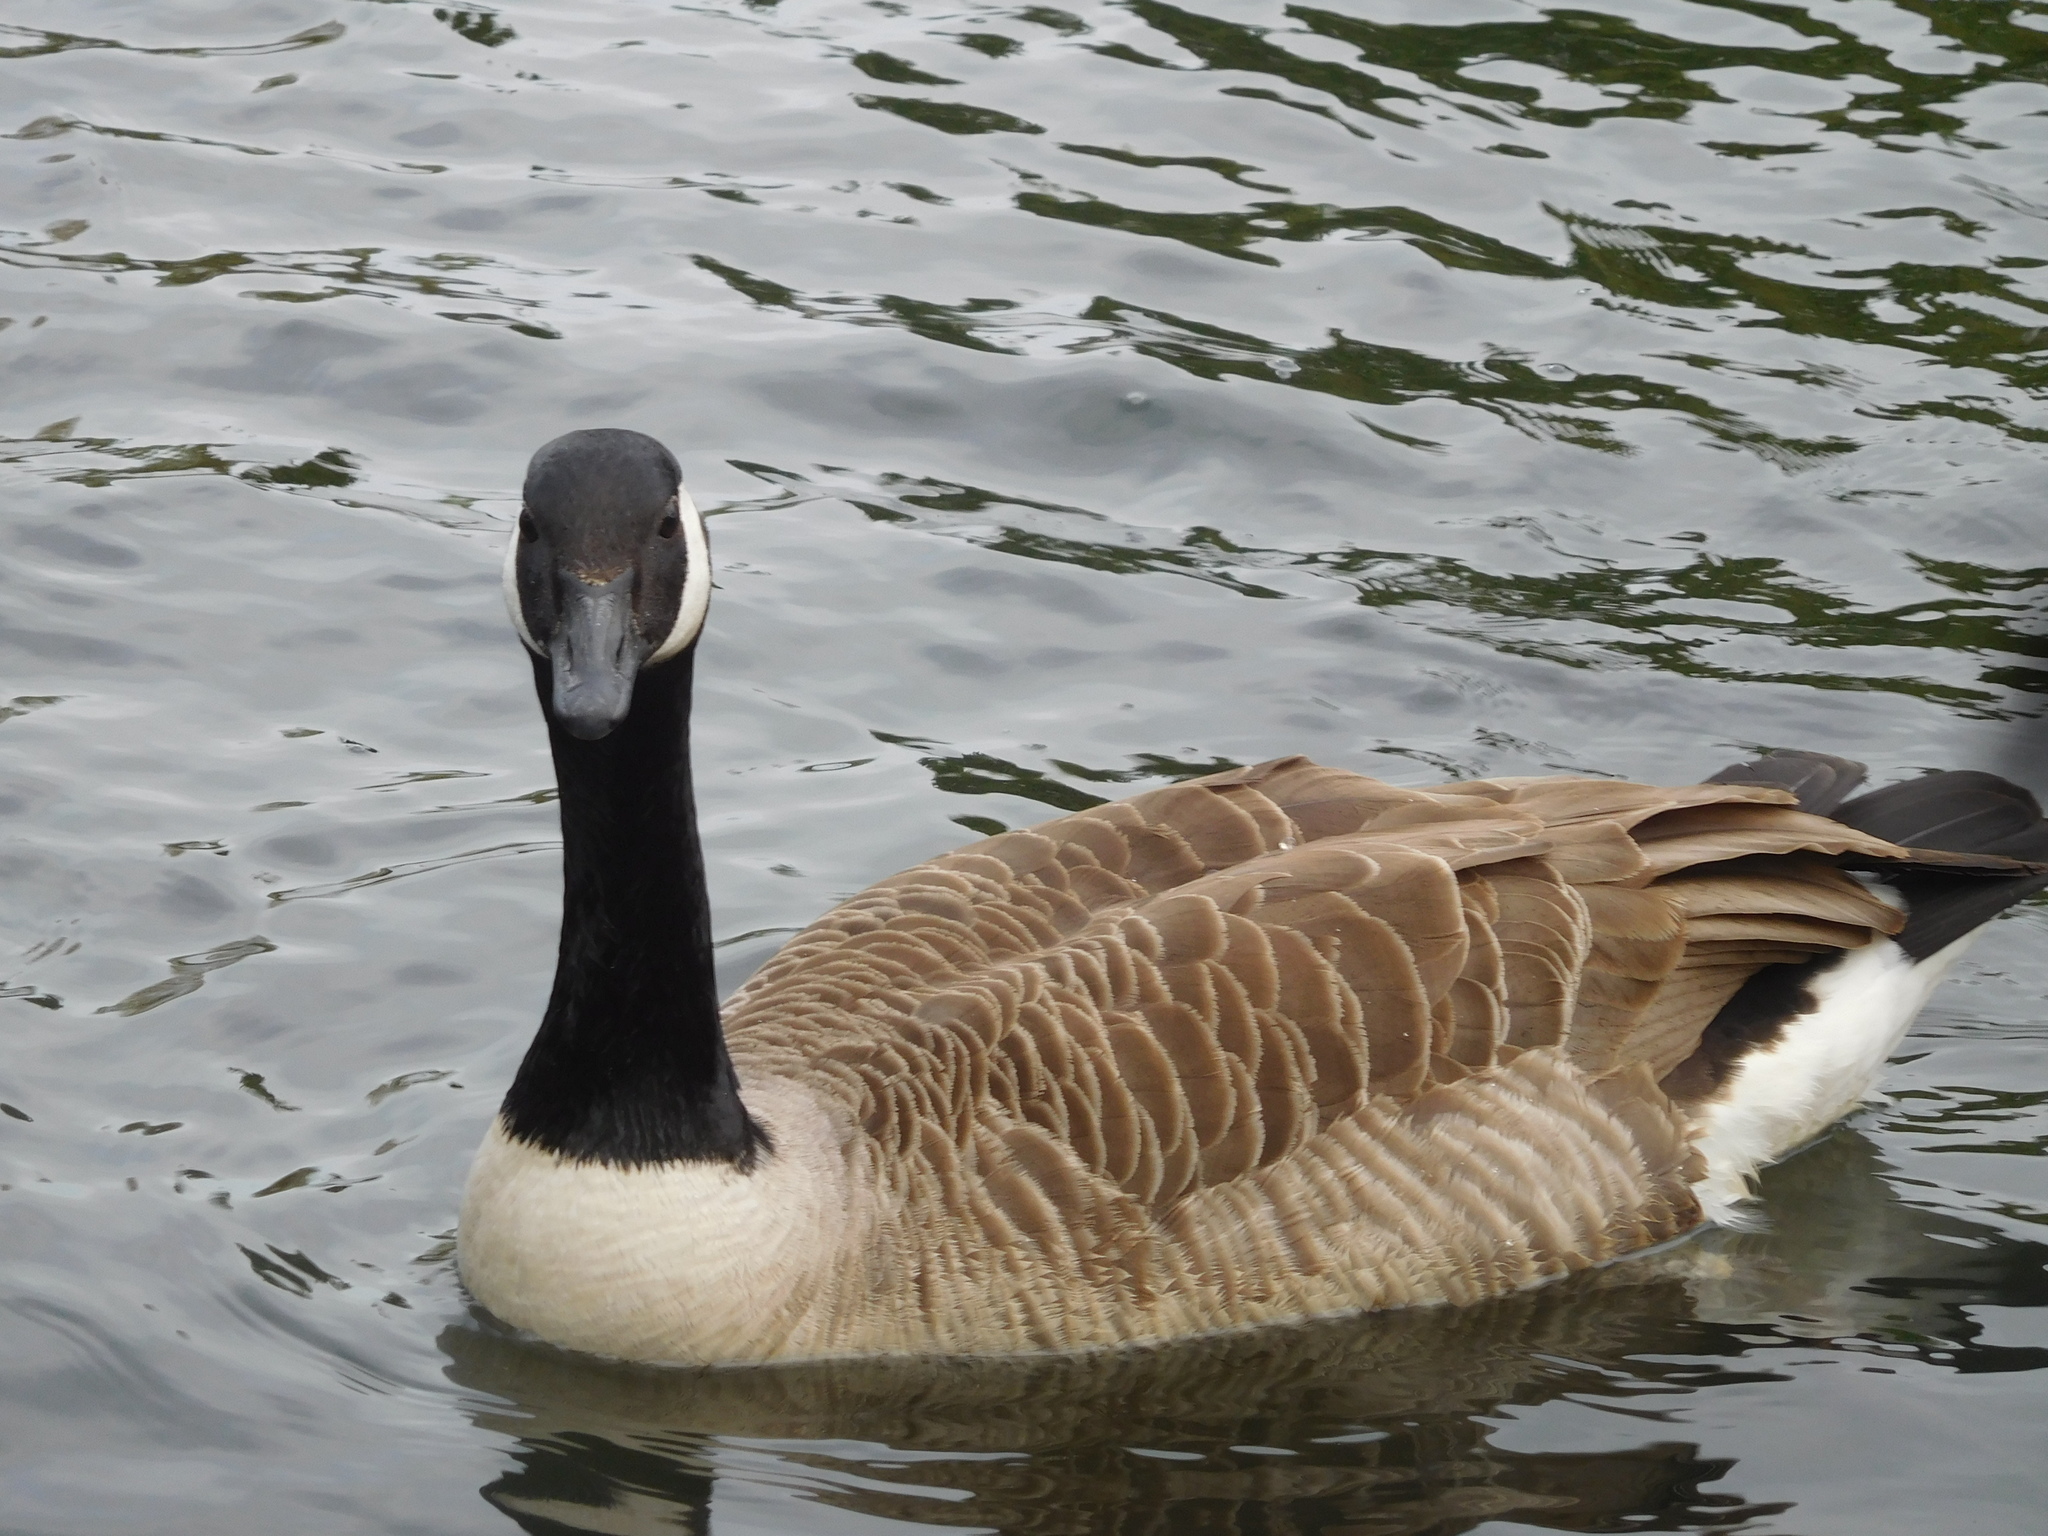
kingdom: Animalia
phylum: Chordata
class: Aves
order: Anseriformes
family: Anatidae
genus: Branta
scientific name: Branta canadensis
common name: Canada goose
